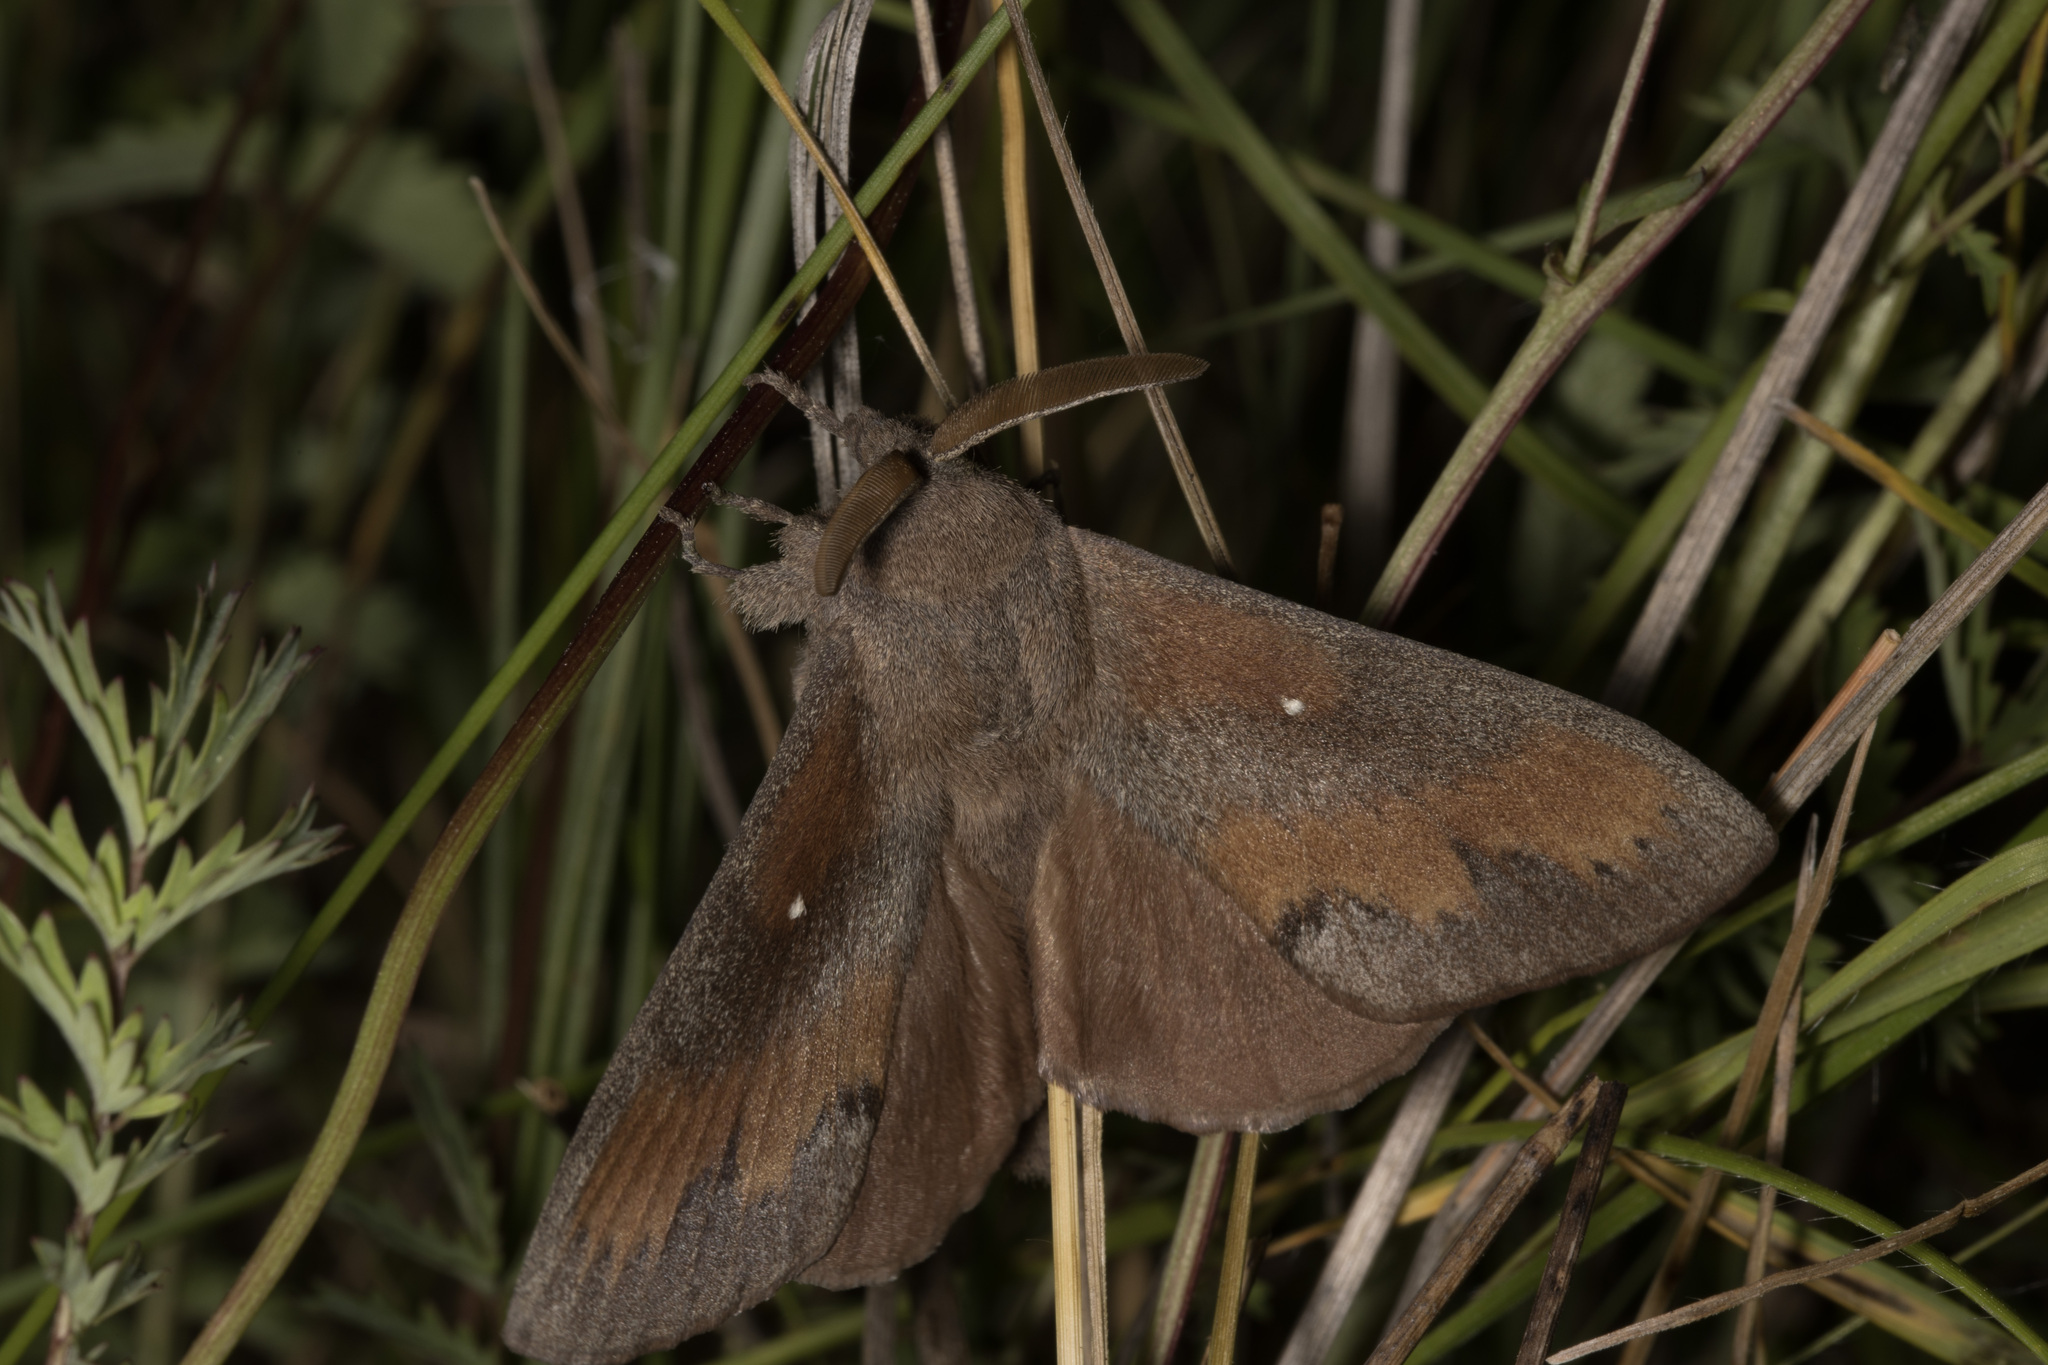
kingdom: Animalia
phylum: Arthropoda
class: Insecta
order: Lepidoptera
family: Lasiocampidae
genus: Dendrolimus
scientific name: Dendrolimus pini
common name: Pine-tree lappet
